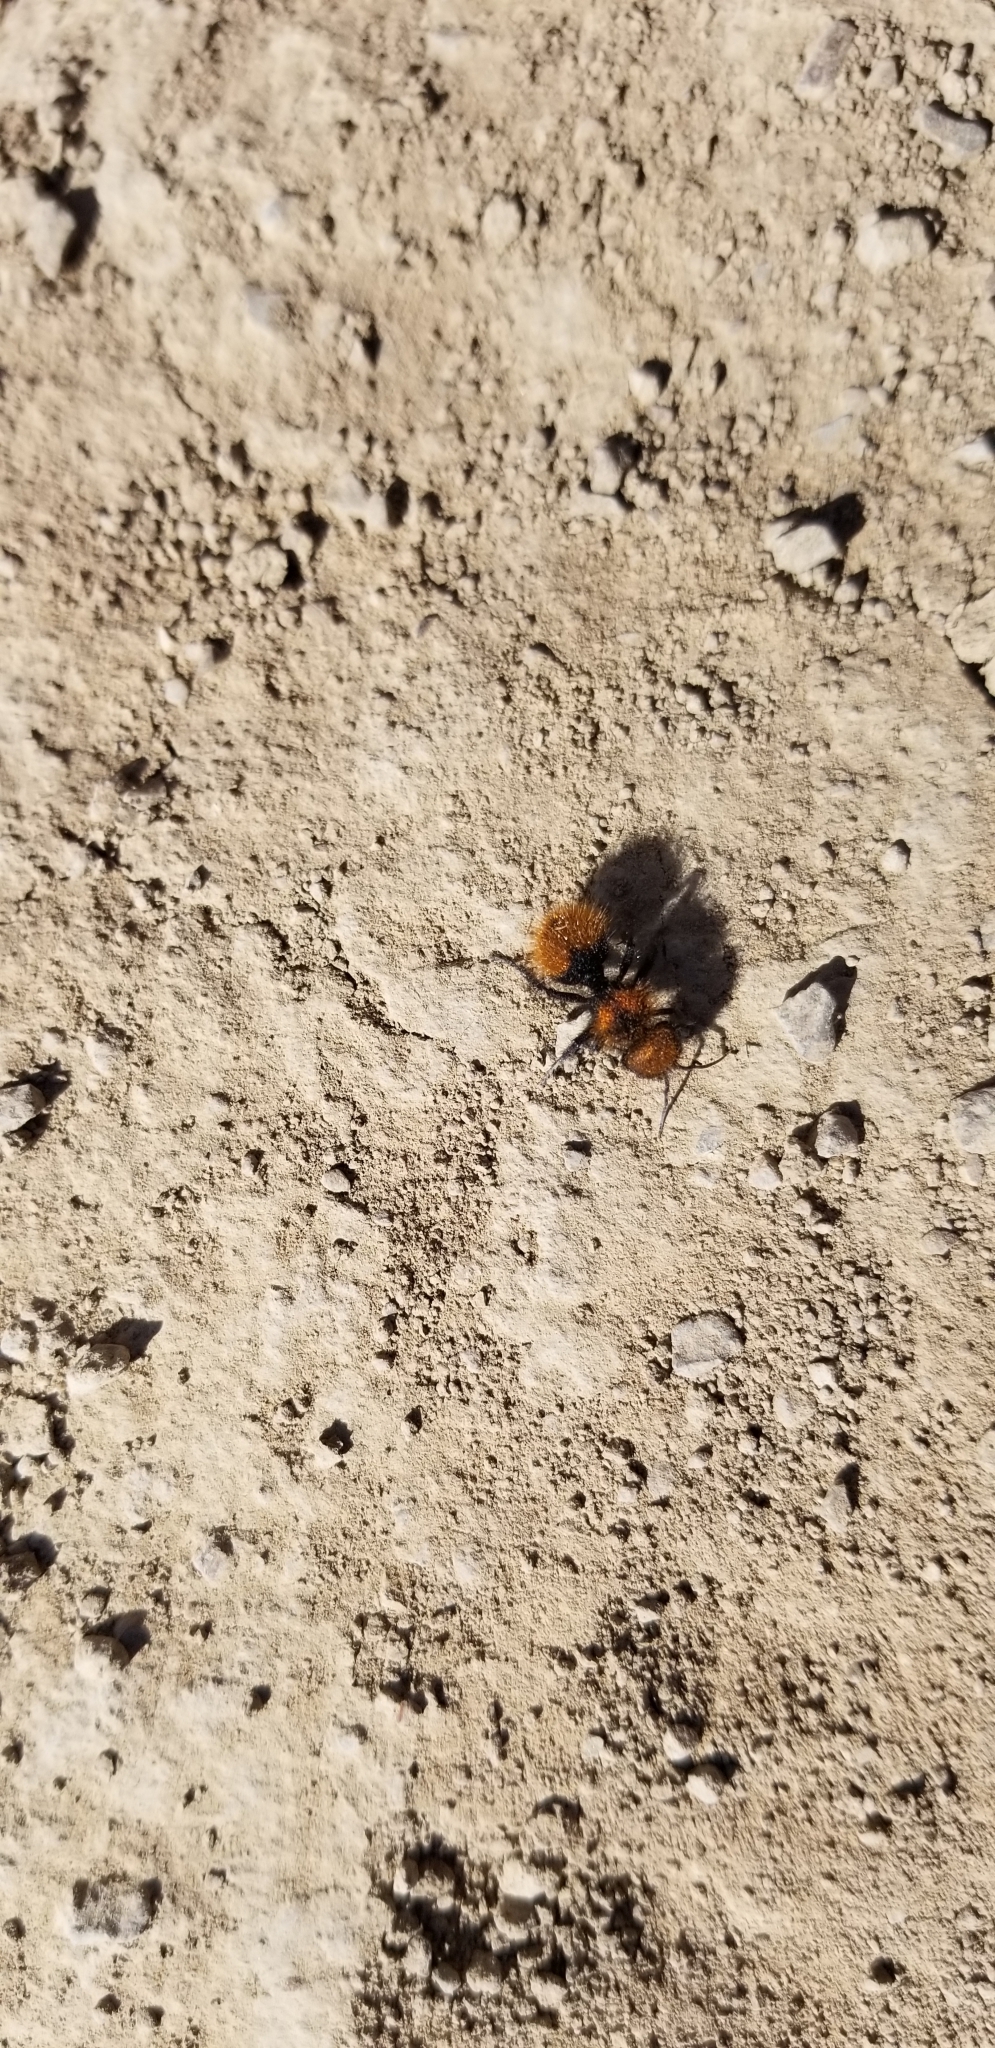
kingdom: Animalia
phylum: Arthropoda
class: Insecta
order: Hymenoptera
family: Mutillidae
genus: Dasymutilla
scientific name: Dasymutilla
